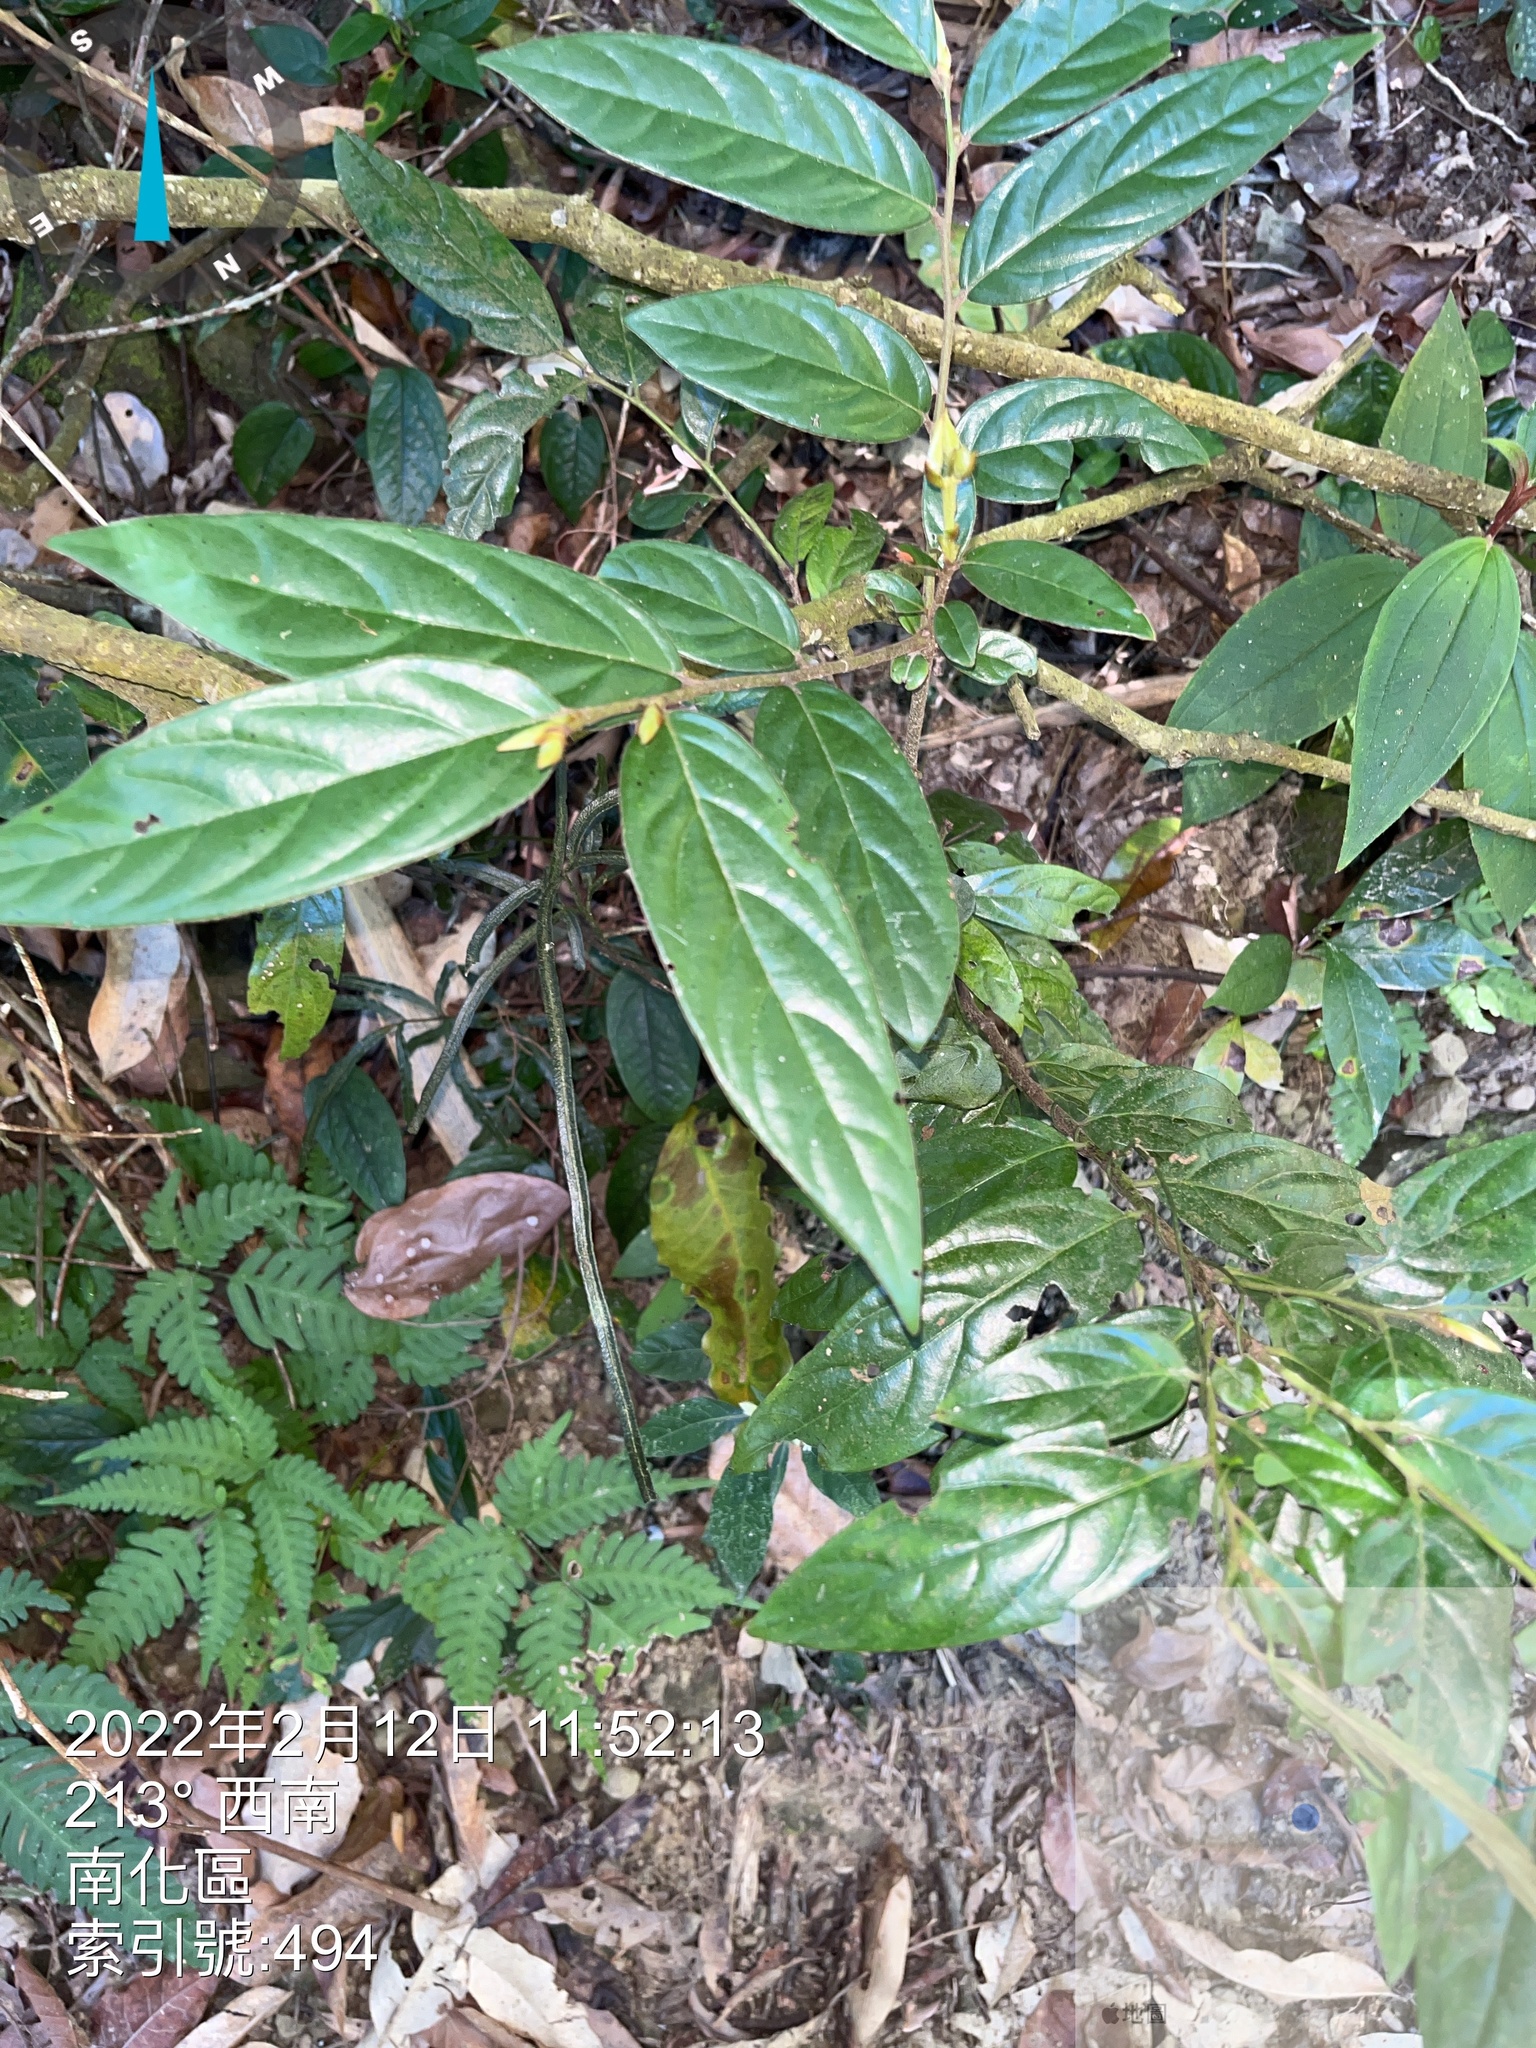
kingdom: Plantae
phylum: Tracheophyta
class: Magnoliopsida
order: Ericales
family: Ebenaceae
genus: Diospyros
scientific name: Diospyros eriantha
